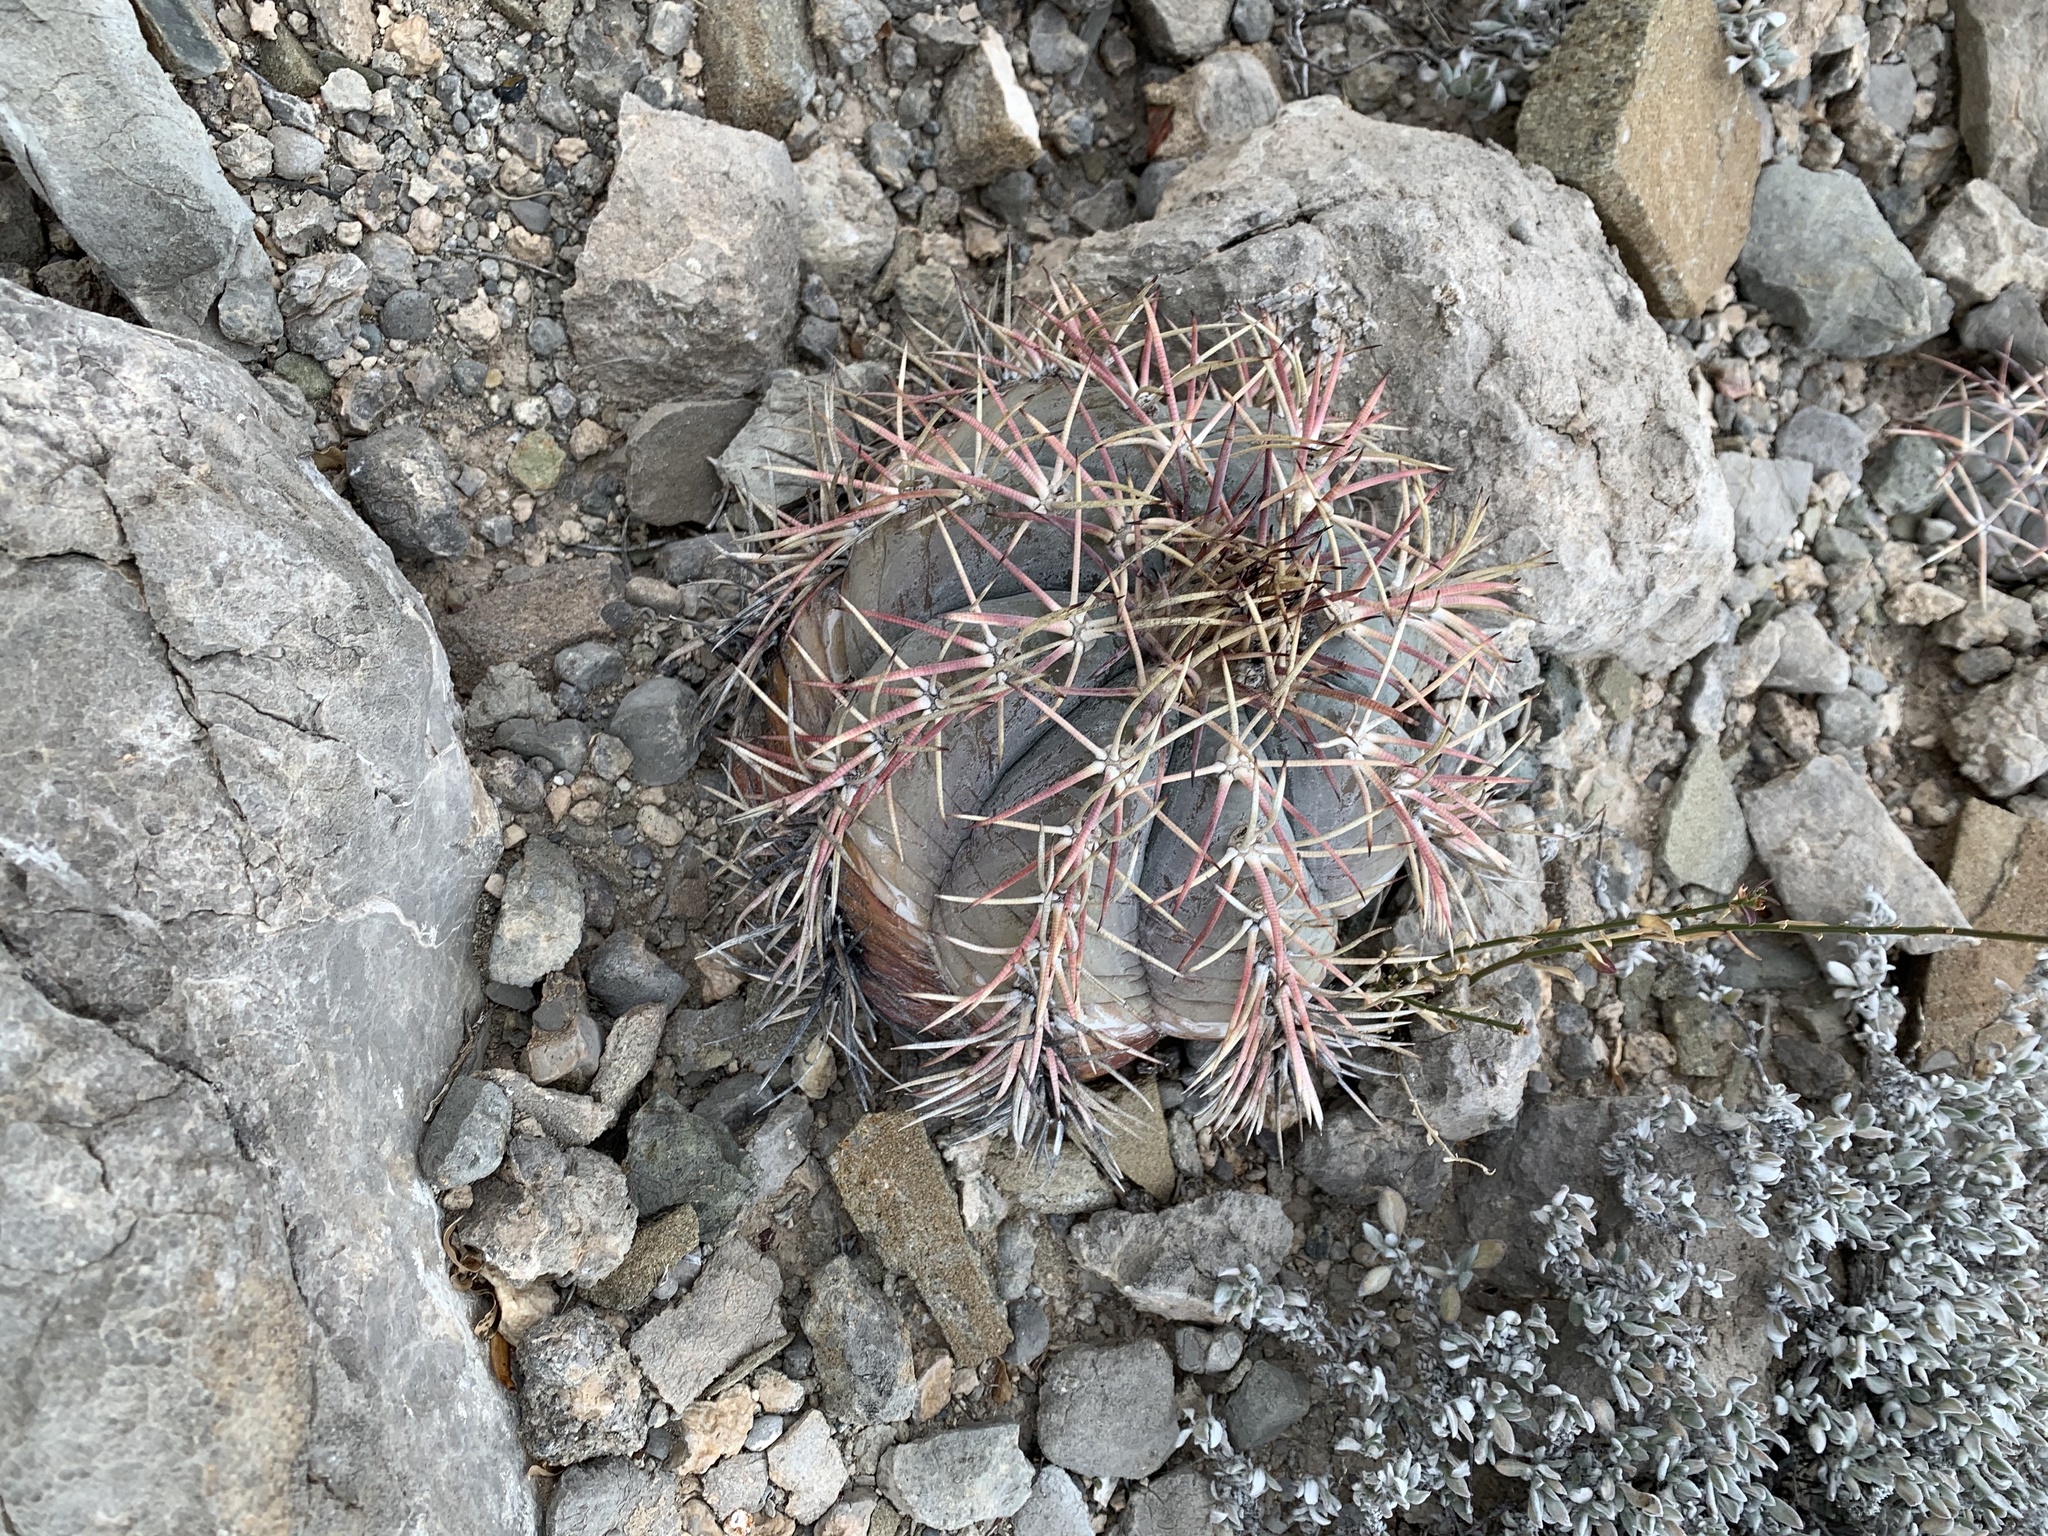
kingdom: Plantae
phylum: Tracheophyta
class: Magnoliopsida
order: Caryophyllales
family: Cactaceae
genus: Echinocactus
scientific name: Echinocactus horizonthalonius
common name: Devilshead
